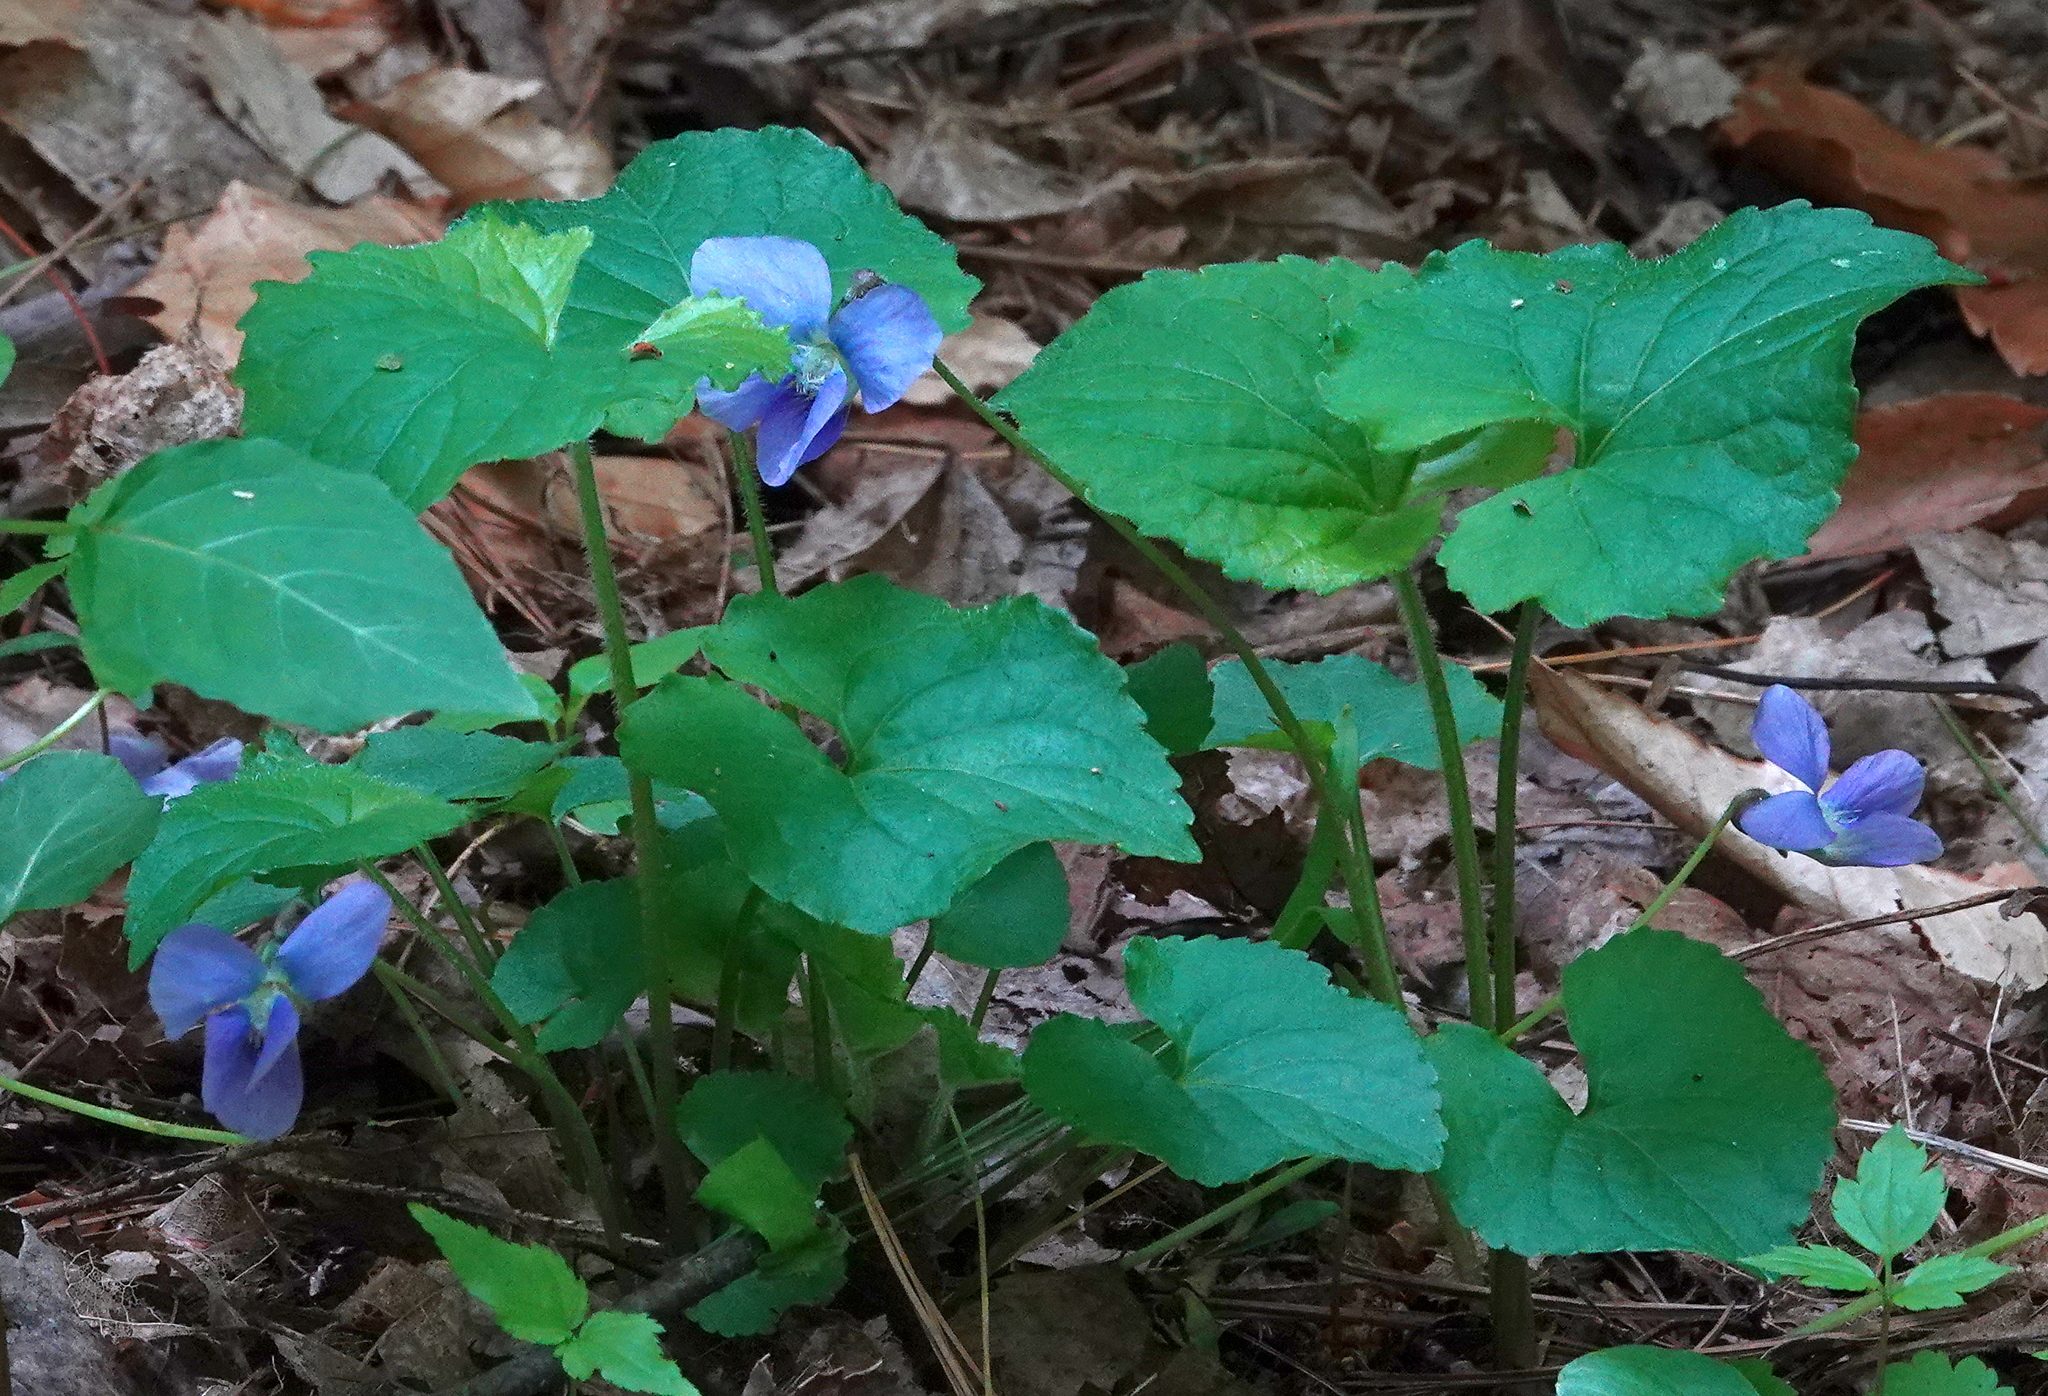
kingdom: Plantae
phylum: Tracheophyta
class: Magnoliopsida
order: Malpighiales
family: Violaceae
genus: Viola
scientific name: Viola sororia
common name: Dooryard violet
